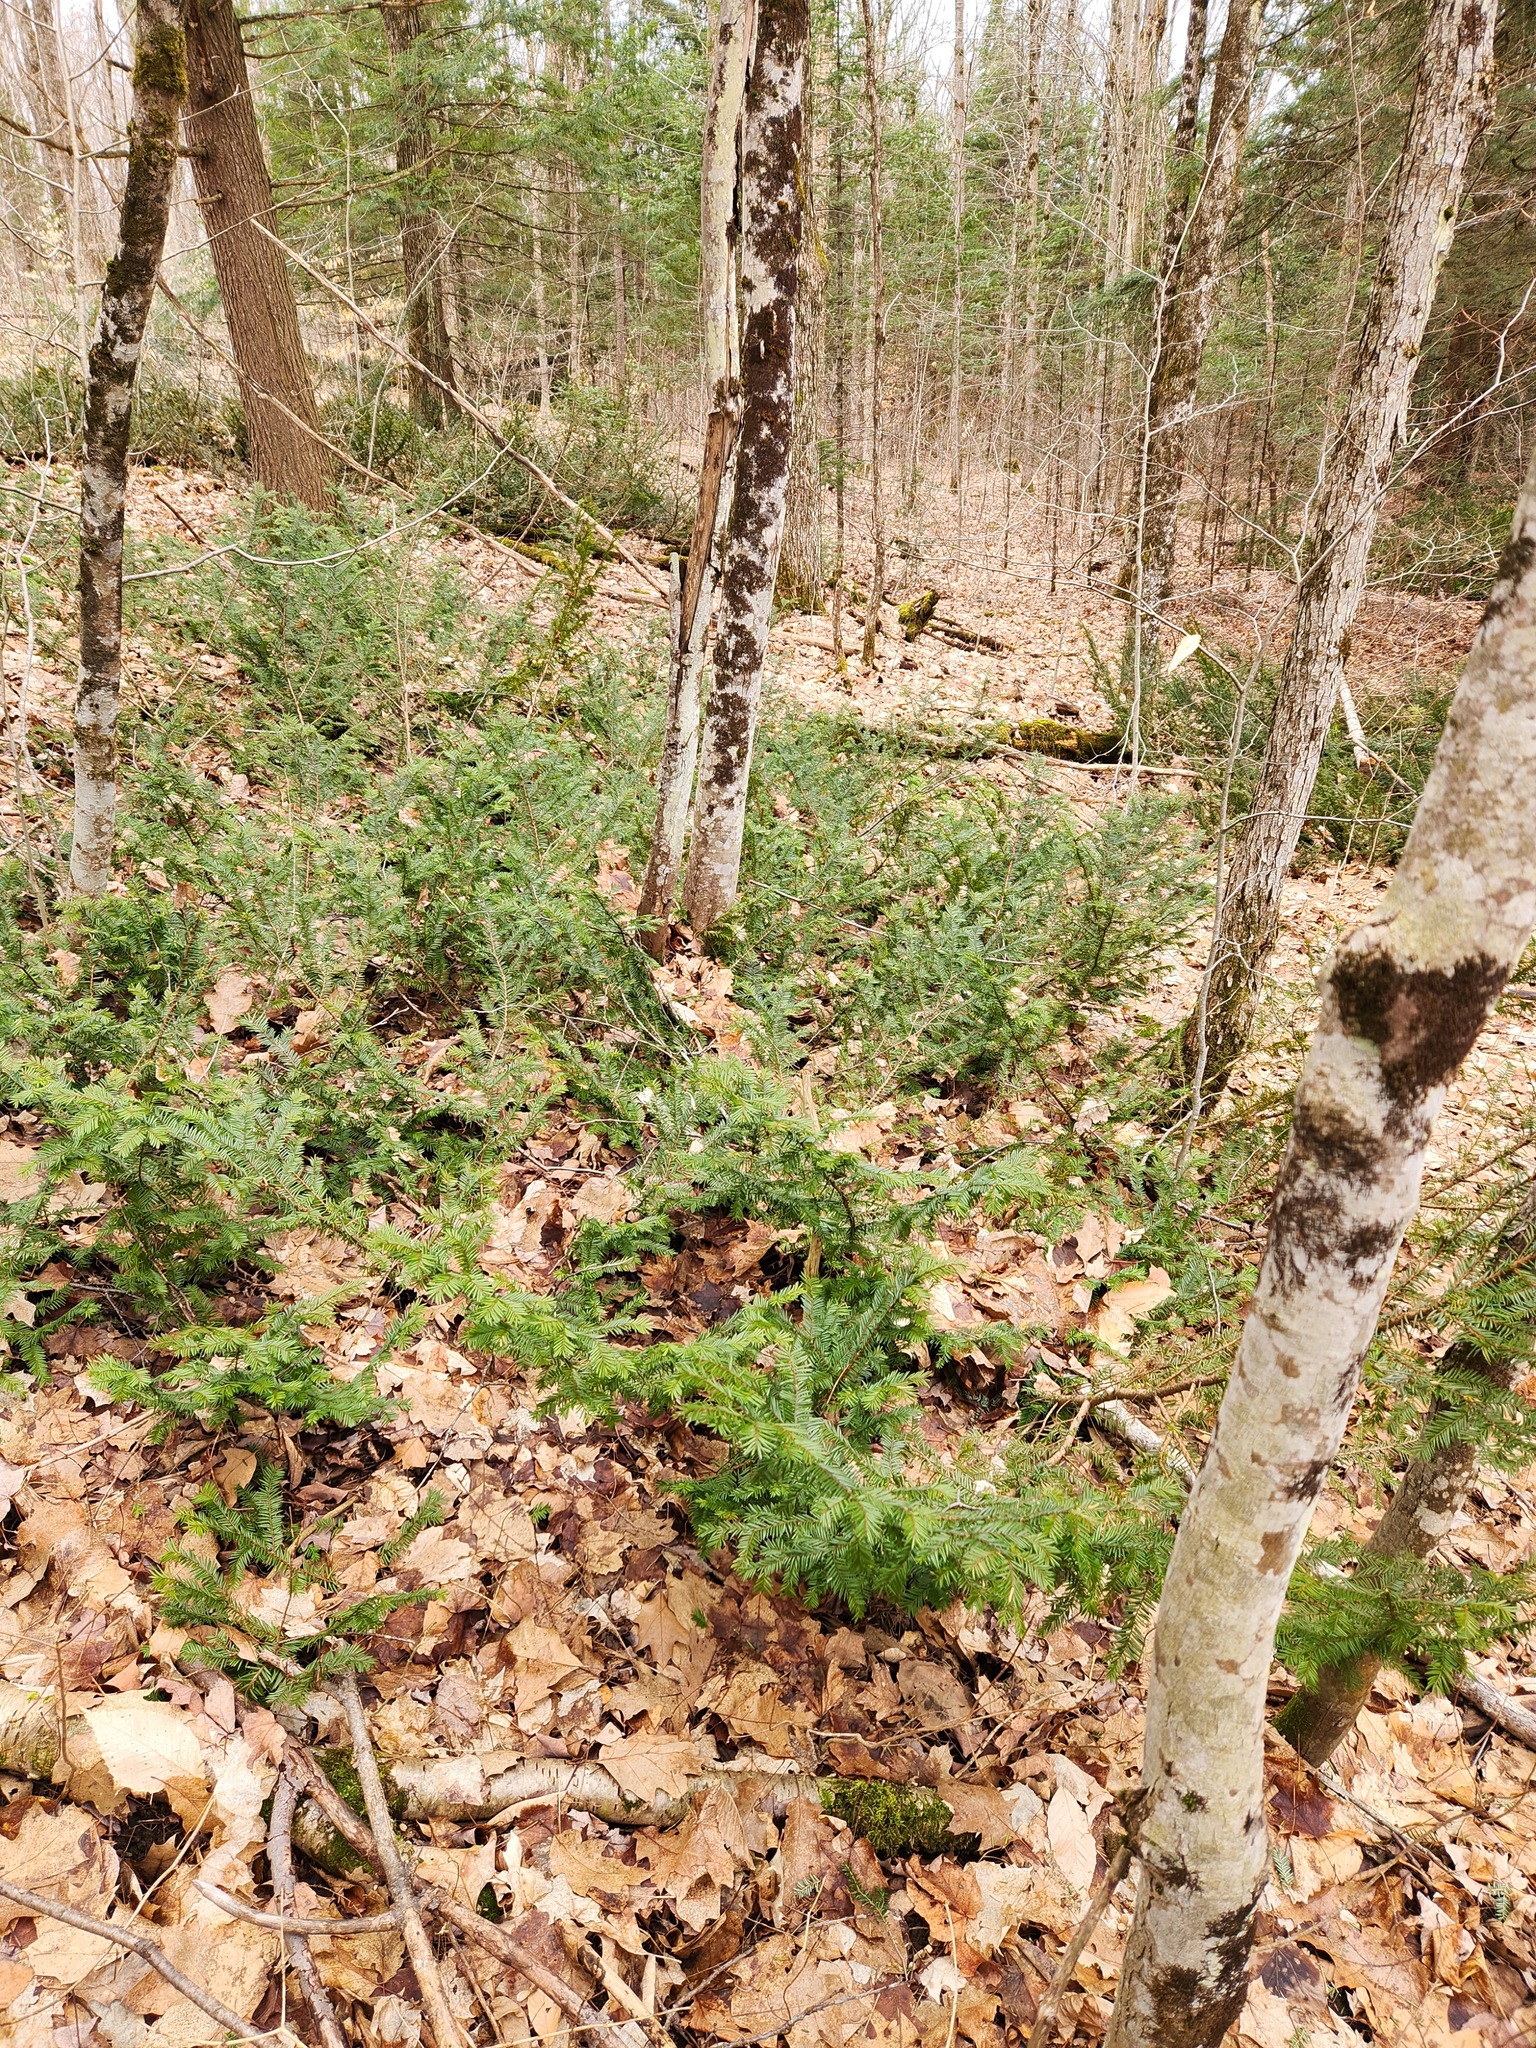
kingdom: Plantae
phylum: Tracheophyta
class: Pinopsida
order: Pinales
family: Taxaceae
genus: Taxus
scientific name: Taxus canadensis
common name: American yew
